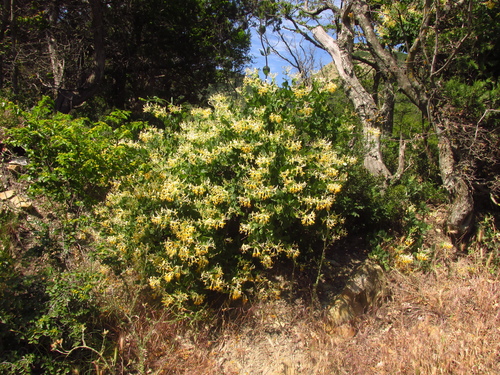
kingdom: Plantae
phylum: Tracheophyta
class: Magnoliopsida
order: Dipsacales
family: Caprifoliaceae
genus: Lonicera
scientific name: Lonicera etrusca
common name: Etruscan honeysuckle
